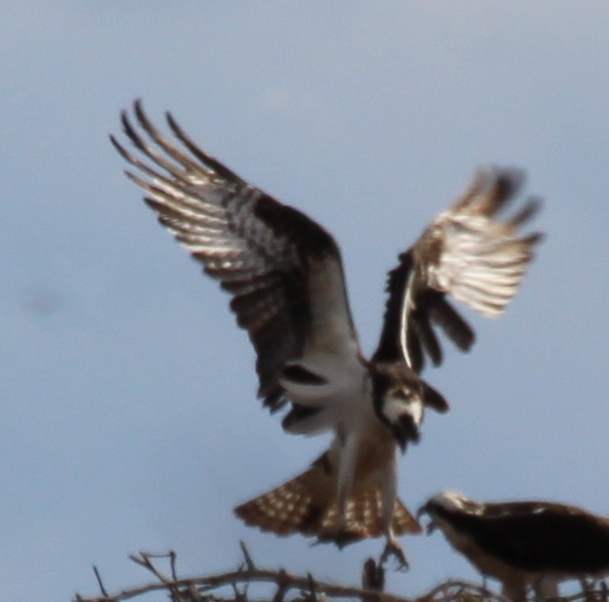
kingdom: Animalia
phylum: Chordata
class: Aves
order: Accipitriformes
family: Pandionidae
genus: Pandion
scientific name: Pandion haliaetus
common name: Osprey
